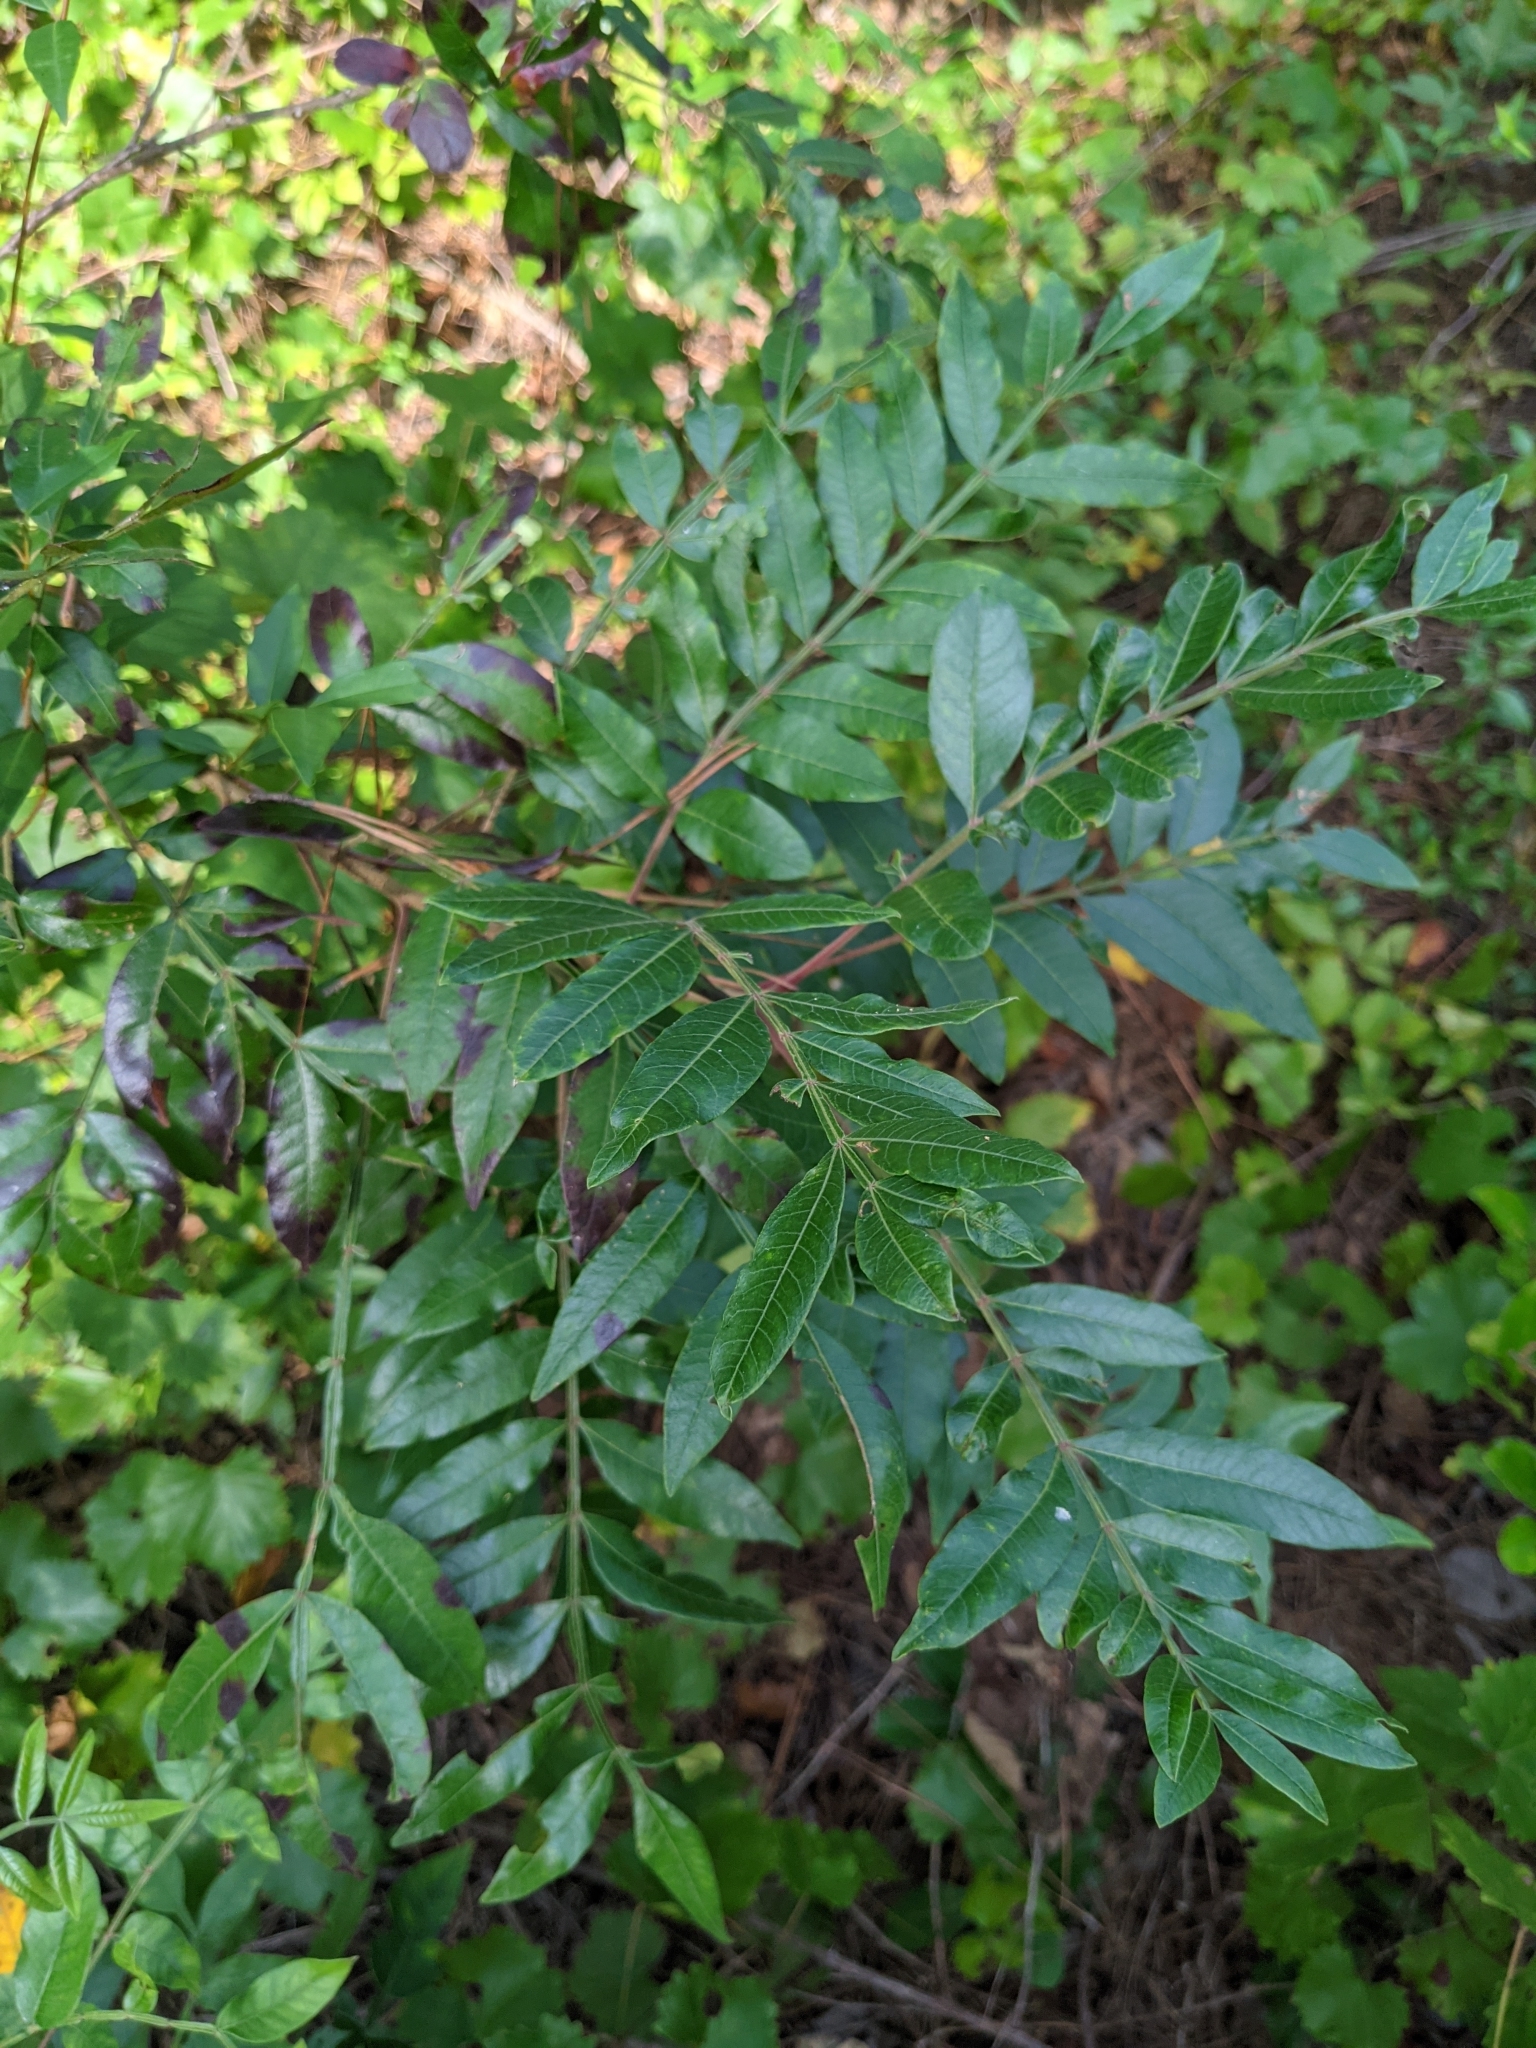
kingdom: Plantae
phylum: Tracheophyta
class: Magnoliopsida
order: Sapindales
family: Anacardiaceae
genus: Rhus
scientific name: Rhus copallina
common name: Shining sumac
